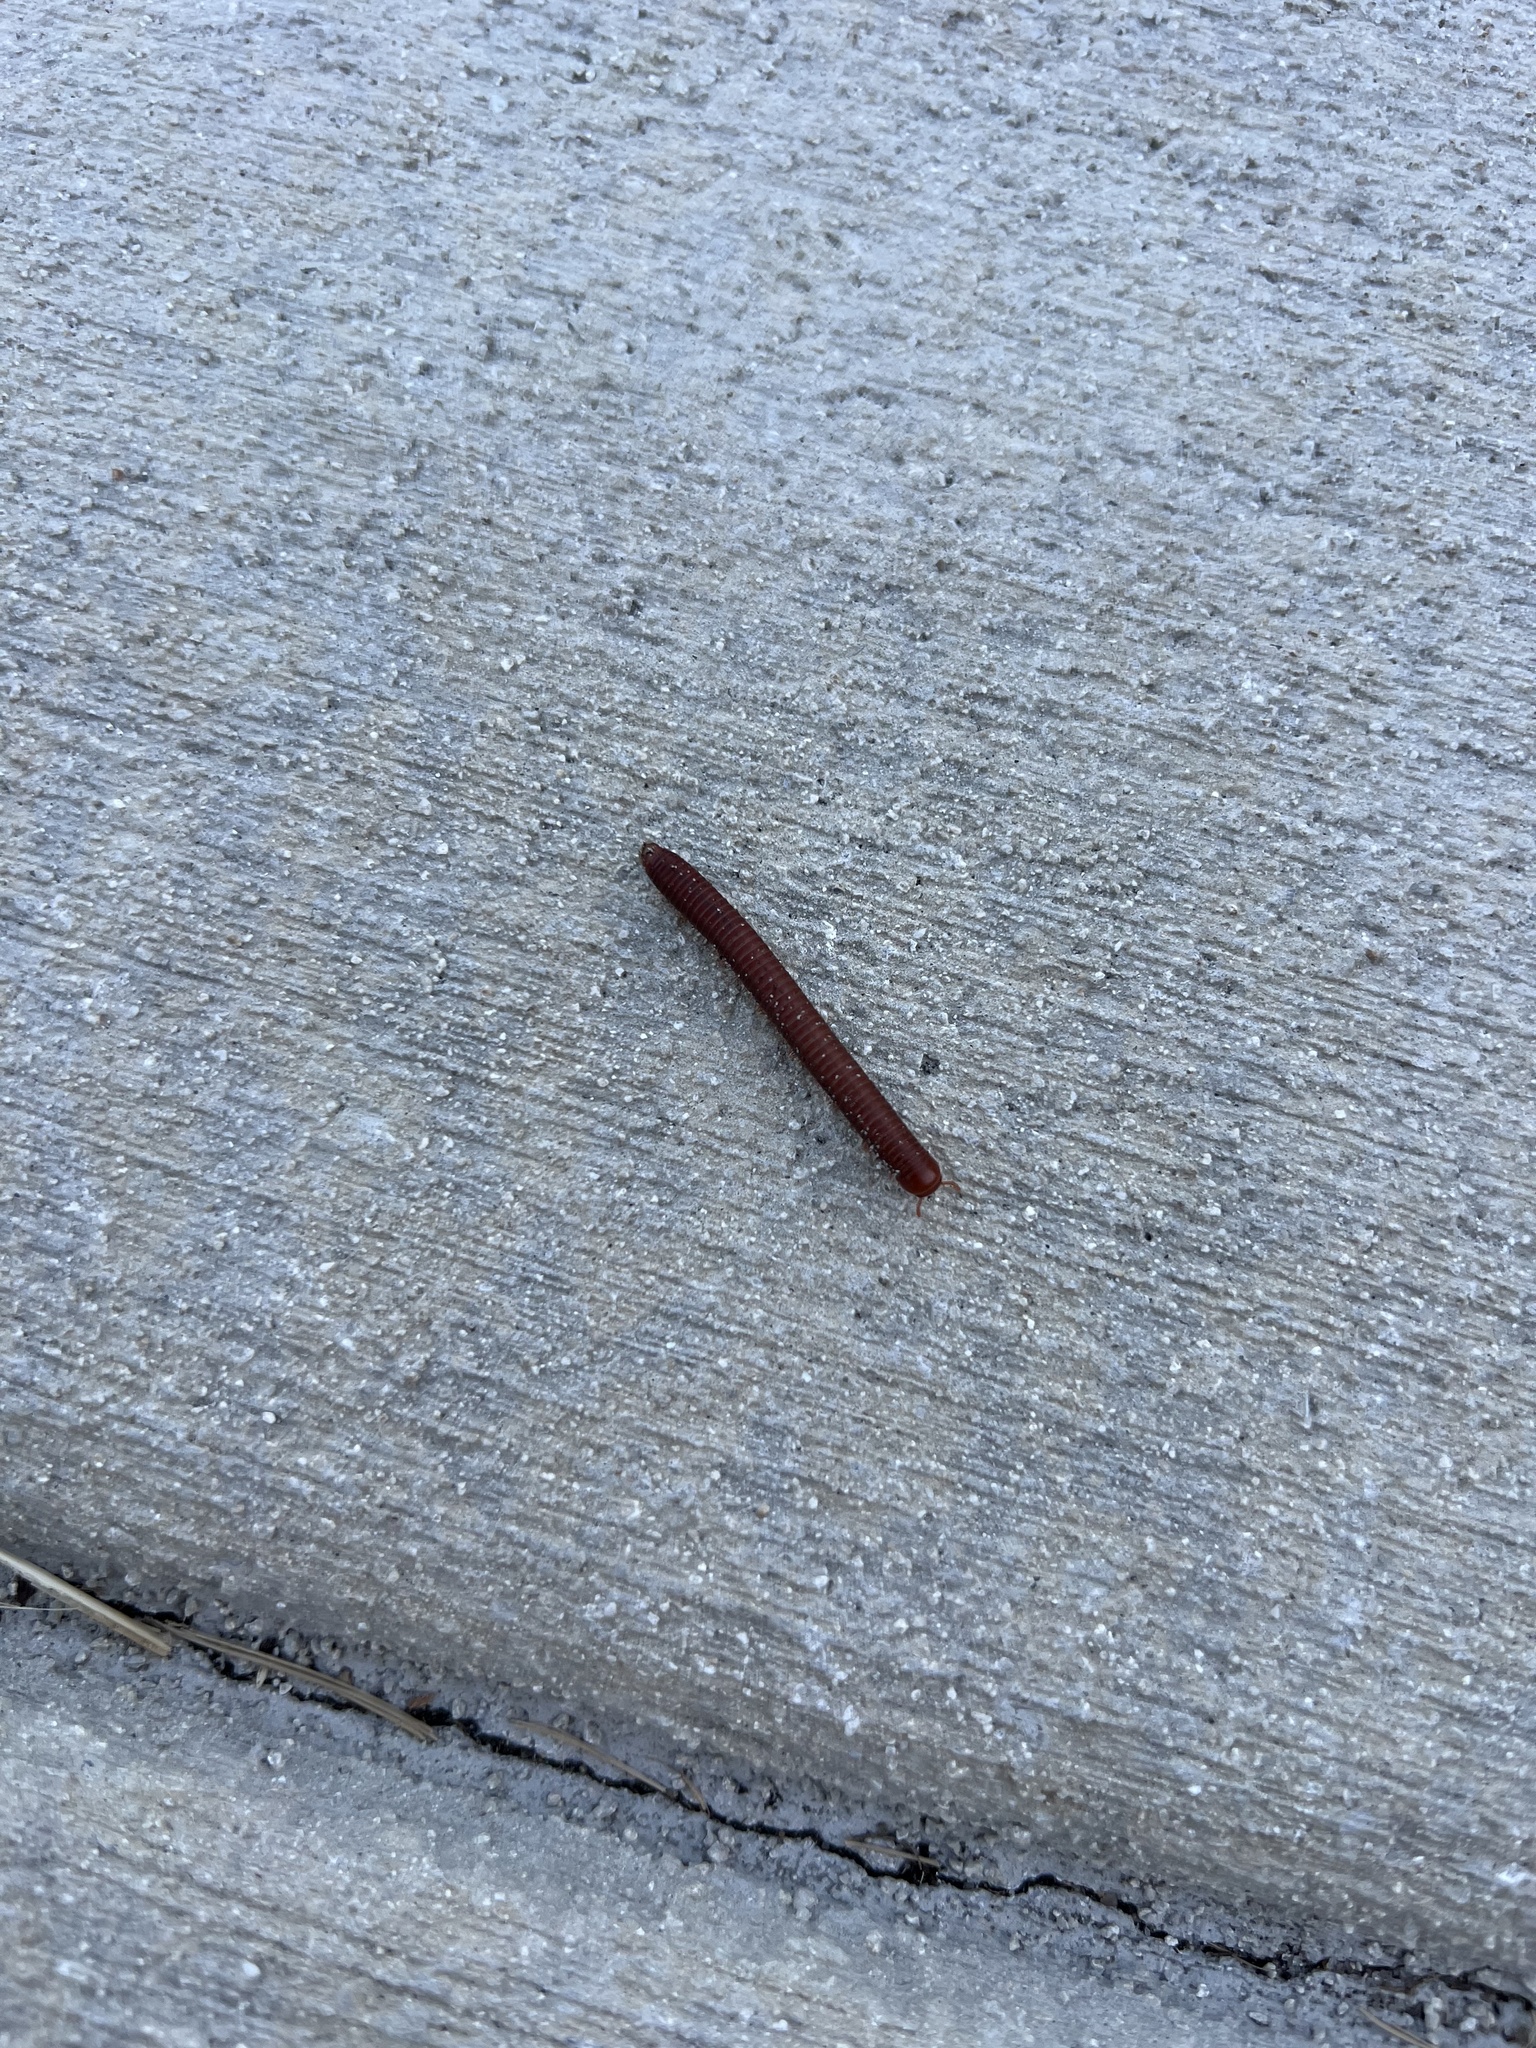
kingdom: Animalia
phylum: Arthropoda
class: Diplopoda
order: Spirobolida
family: Pachybolidae
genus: Trigoniulus
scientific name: Trigoniulus corallinus
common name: Millipede
